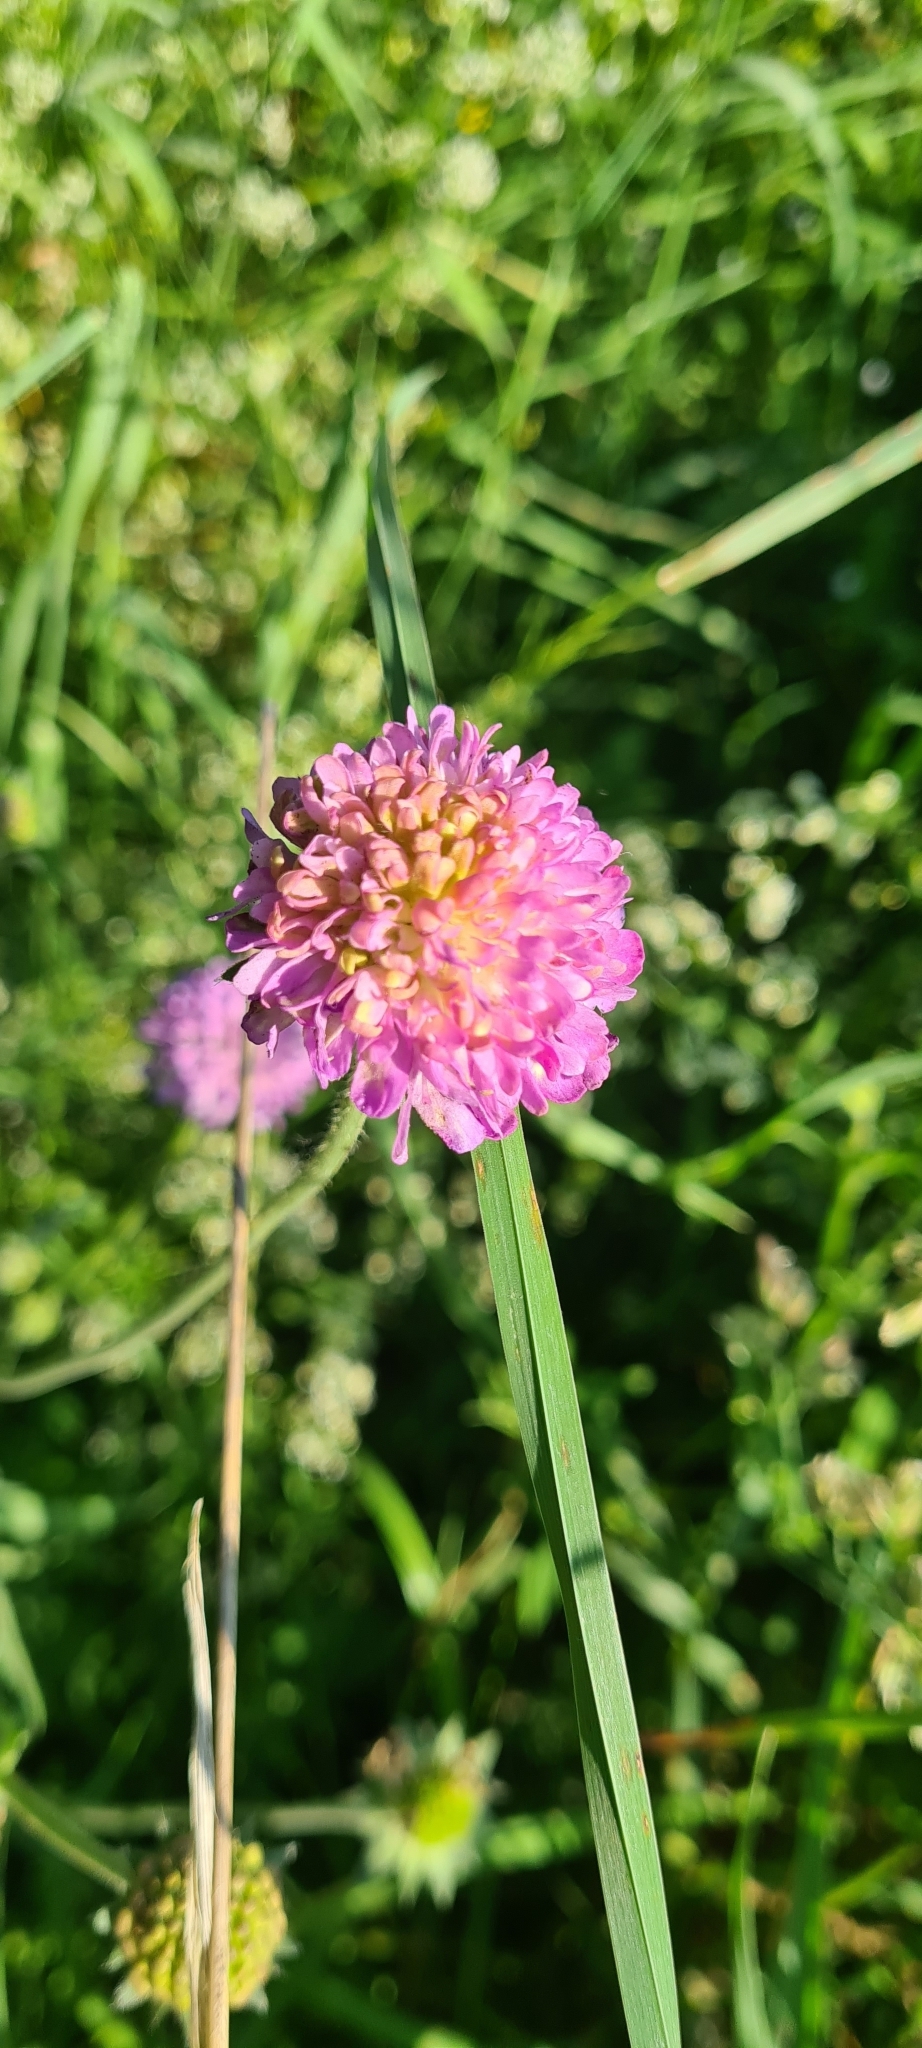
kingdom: Plantae
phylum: Tracheophyta
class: Magnoliopsida
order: Dipsacales
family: Caprifoliaceae
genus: Knautia
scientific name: Knautia arvensis
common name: Field scabiosa
